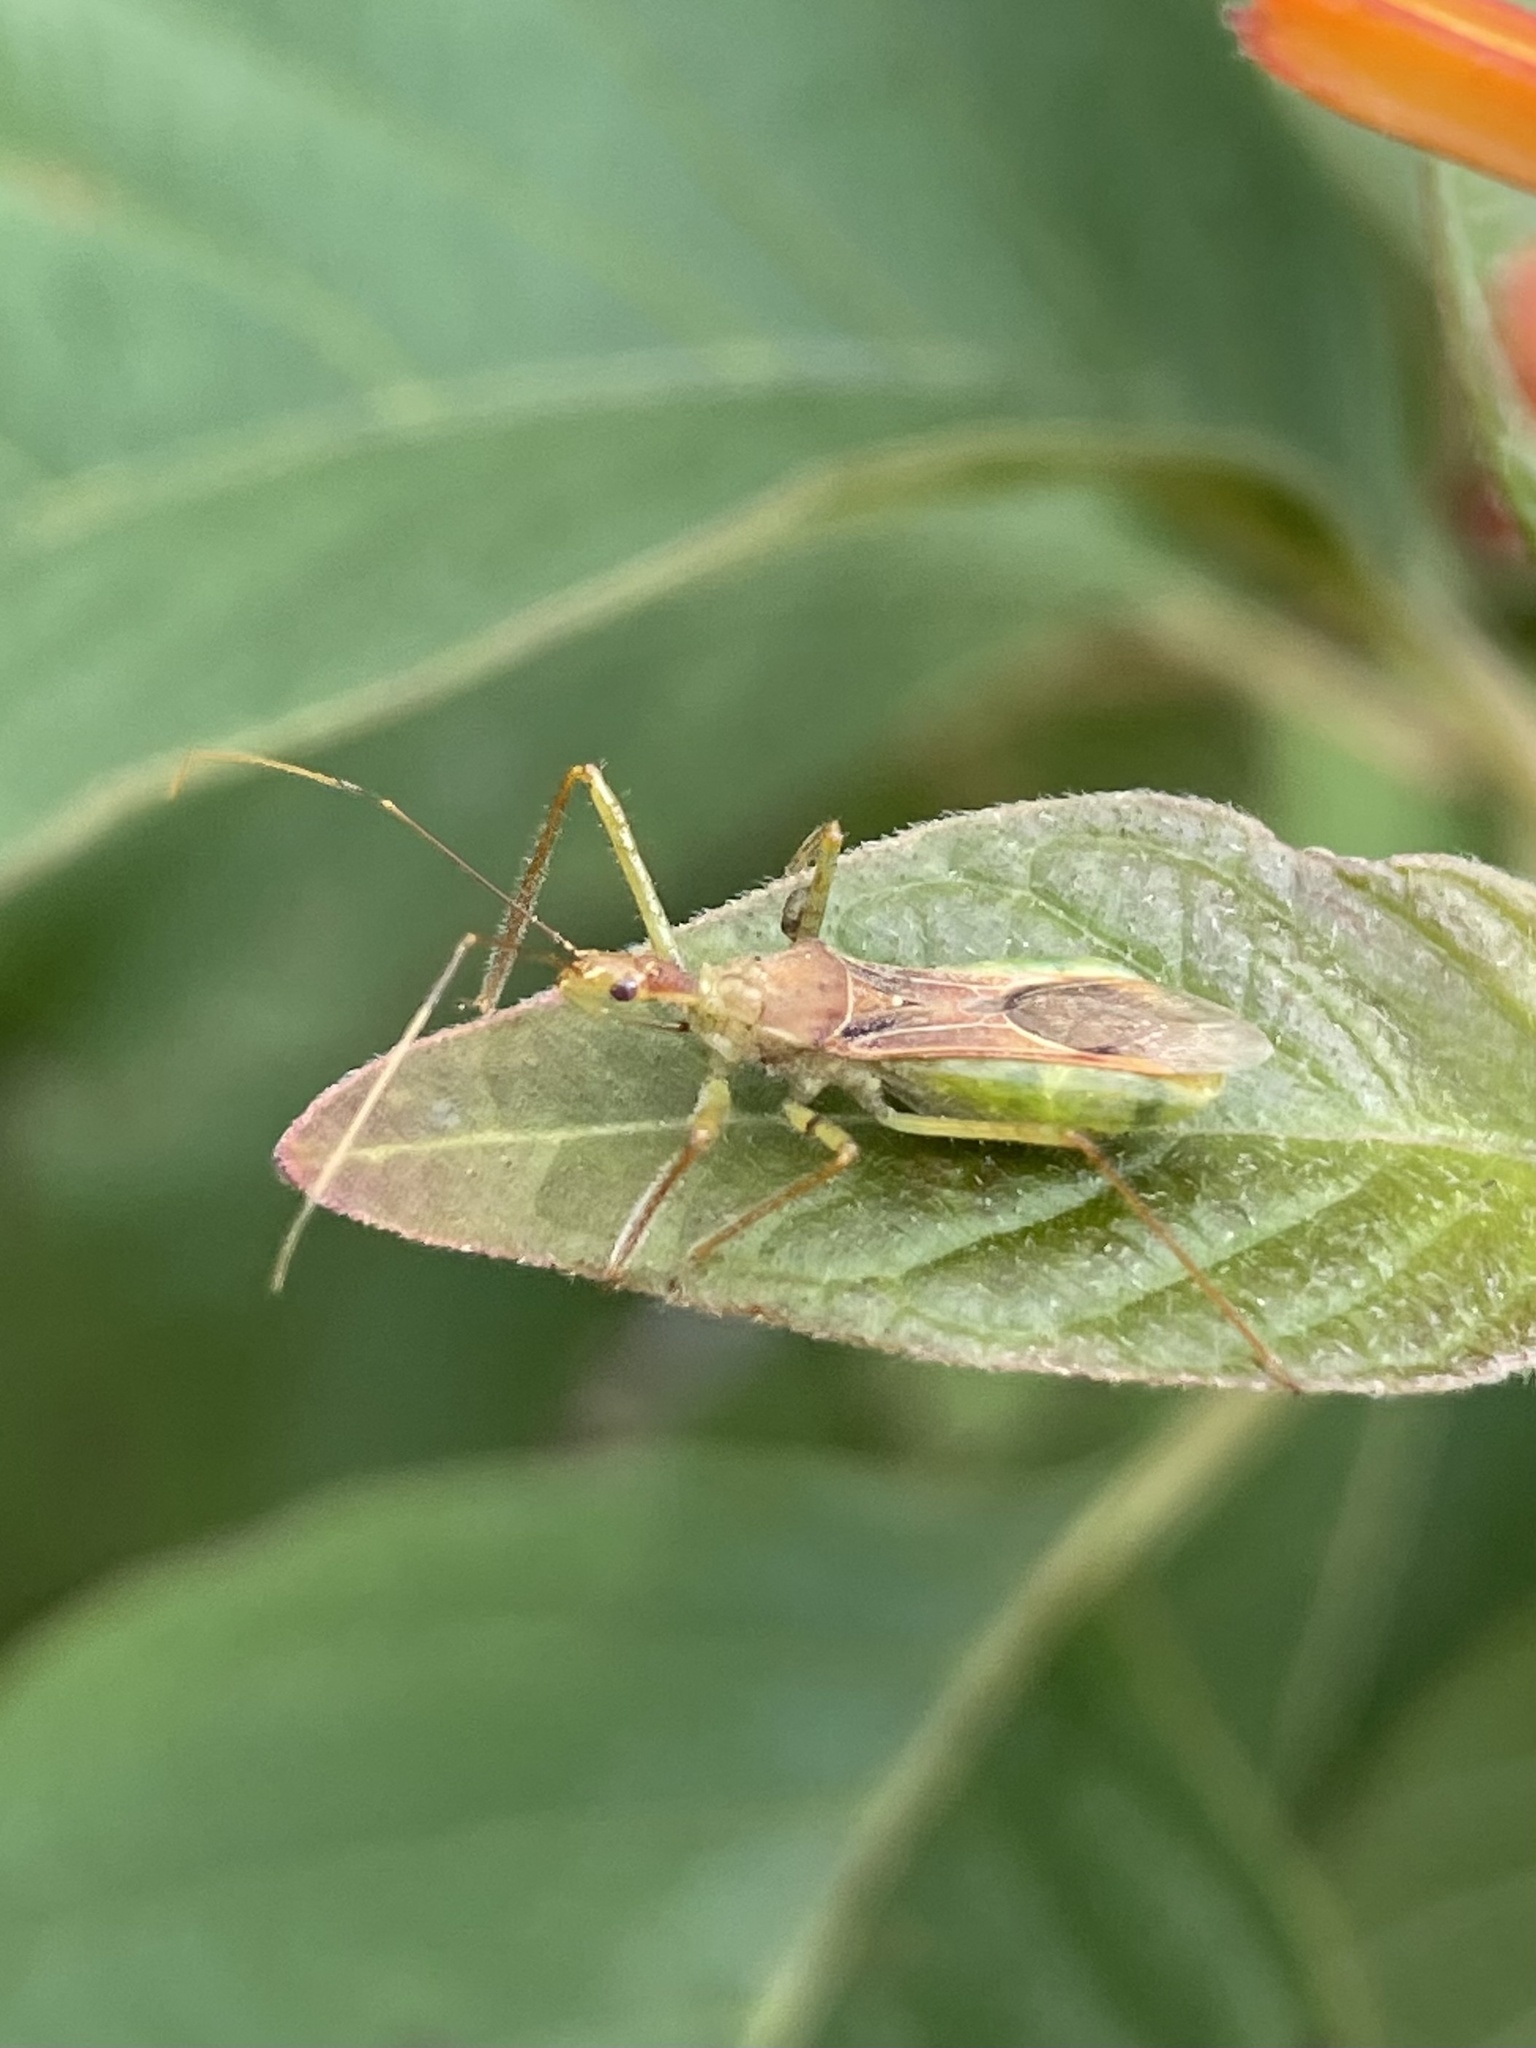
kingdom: Animalia
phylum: Arthropoda
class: Insecta
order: Hemiptera
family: Reduviidae
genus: Zelus
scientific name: Zelus renardii
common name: Assassin bug
